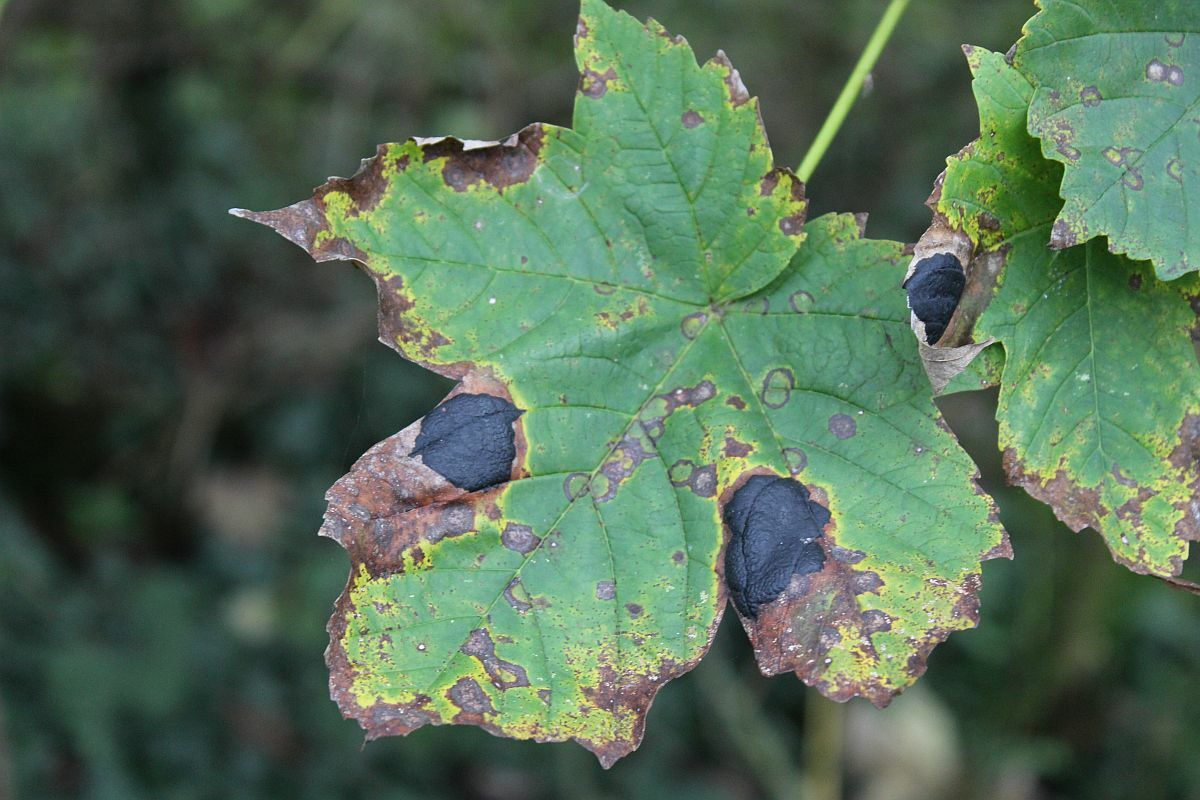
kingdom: Fungi
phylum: Ascomycota
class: Leotiomycetes
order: Rhytismatales
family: Rhytismataceae
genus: Rhytisma
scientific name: Rhytisma acerinum
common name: European tar spot
